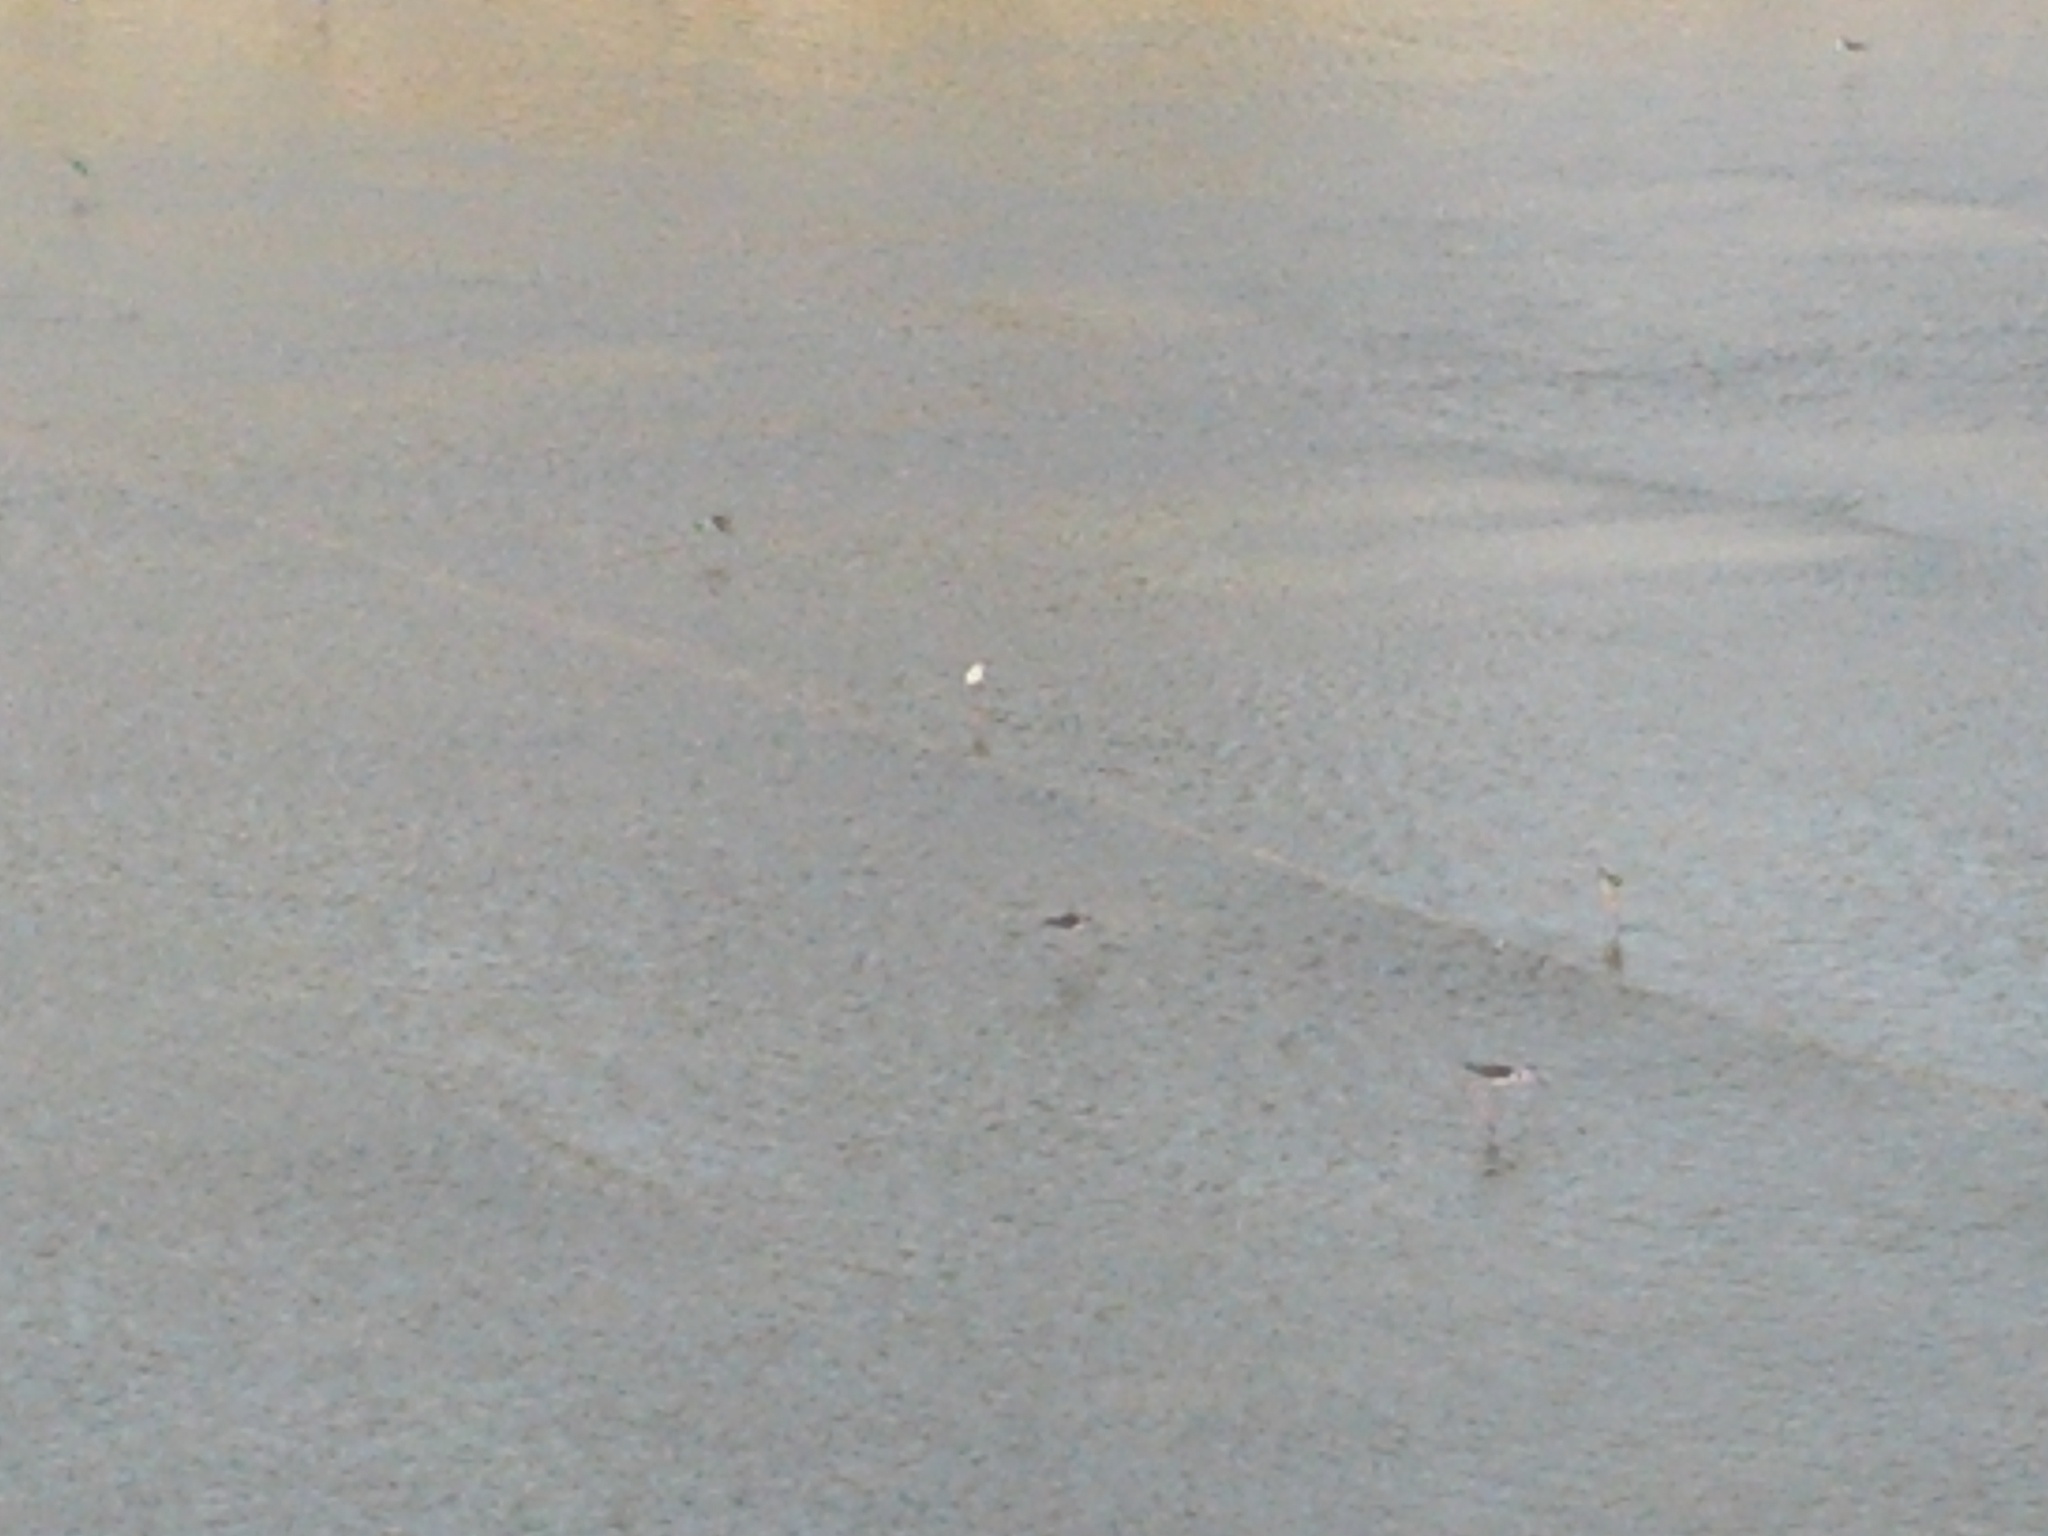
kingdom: Animalia
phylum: Chordata
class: Aves
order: Charadriiformes
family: Recurvirostridae
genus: Himantopus
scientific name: Himantopus mexicanus
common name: Black-necked stilt
